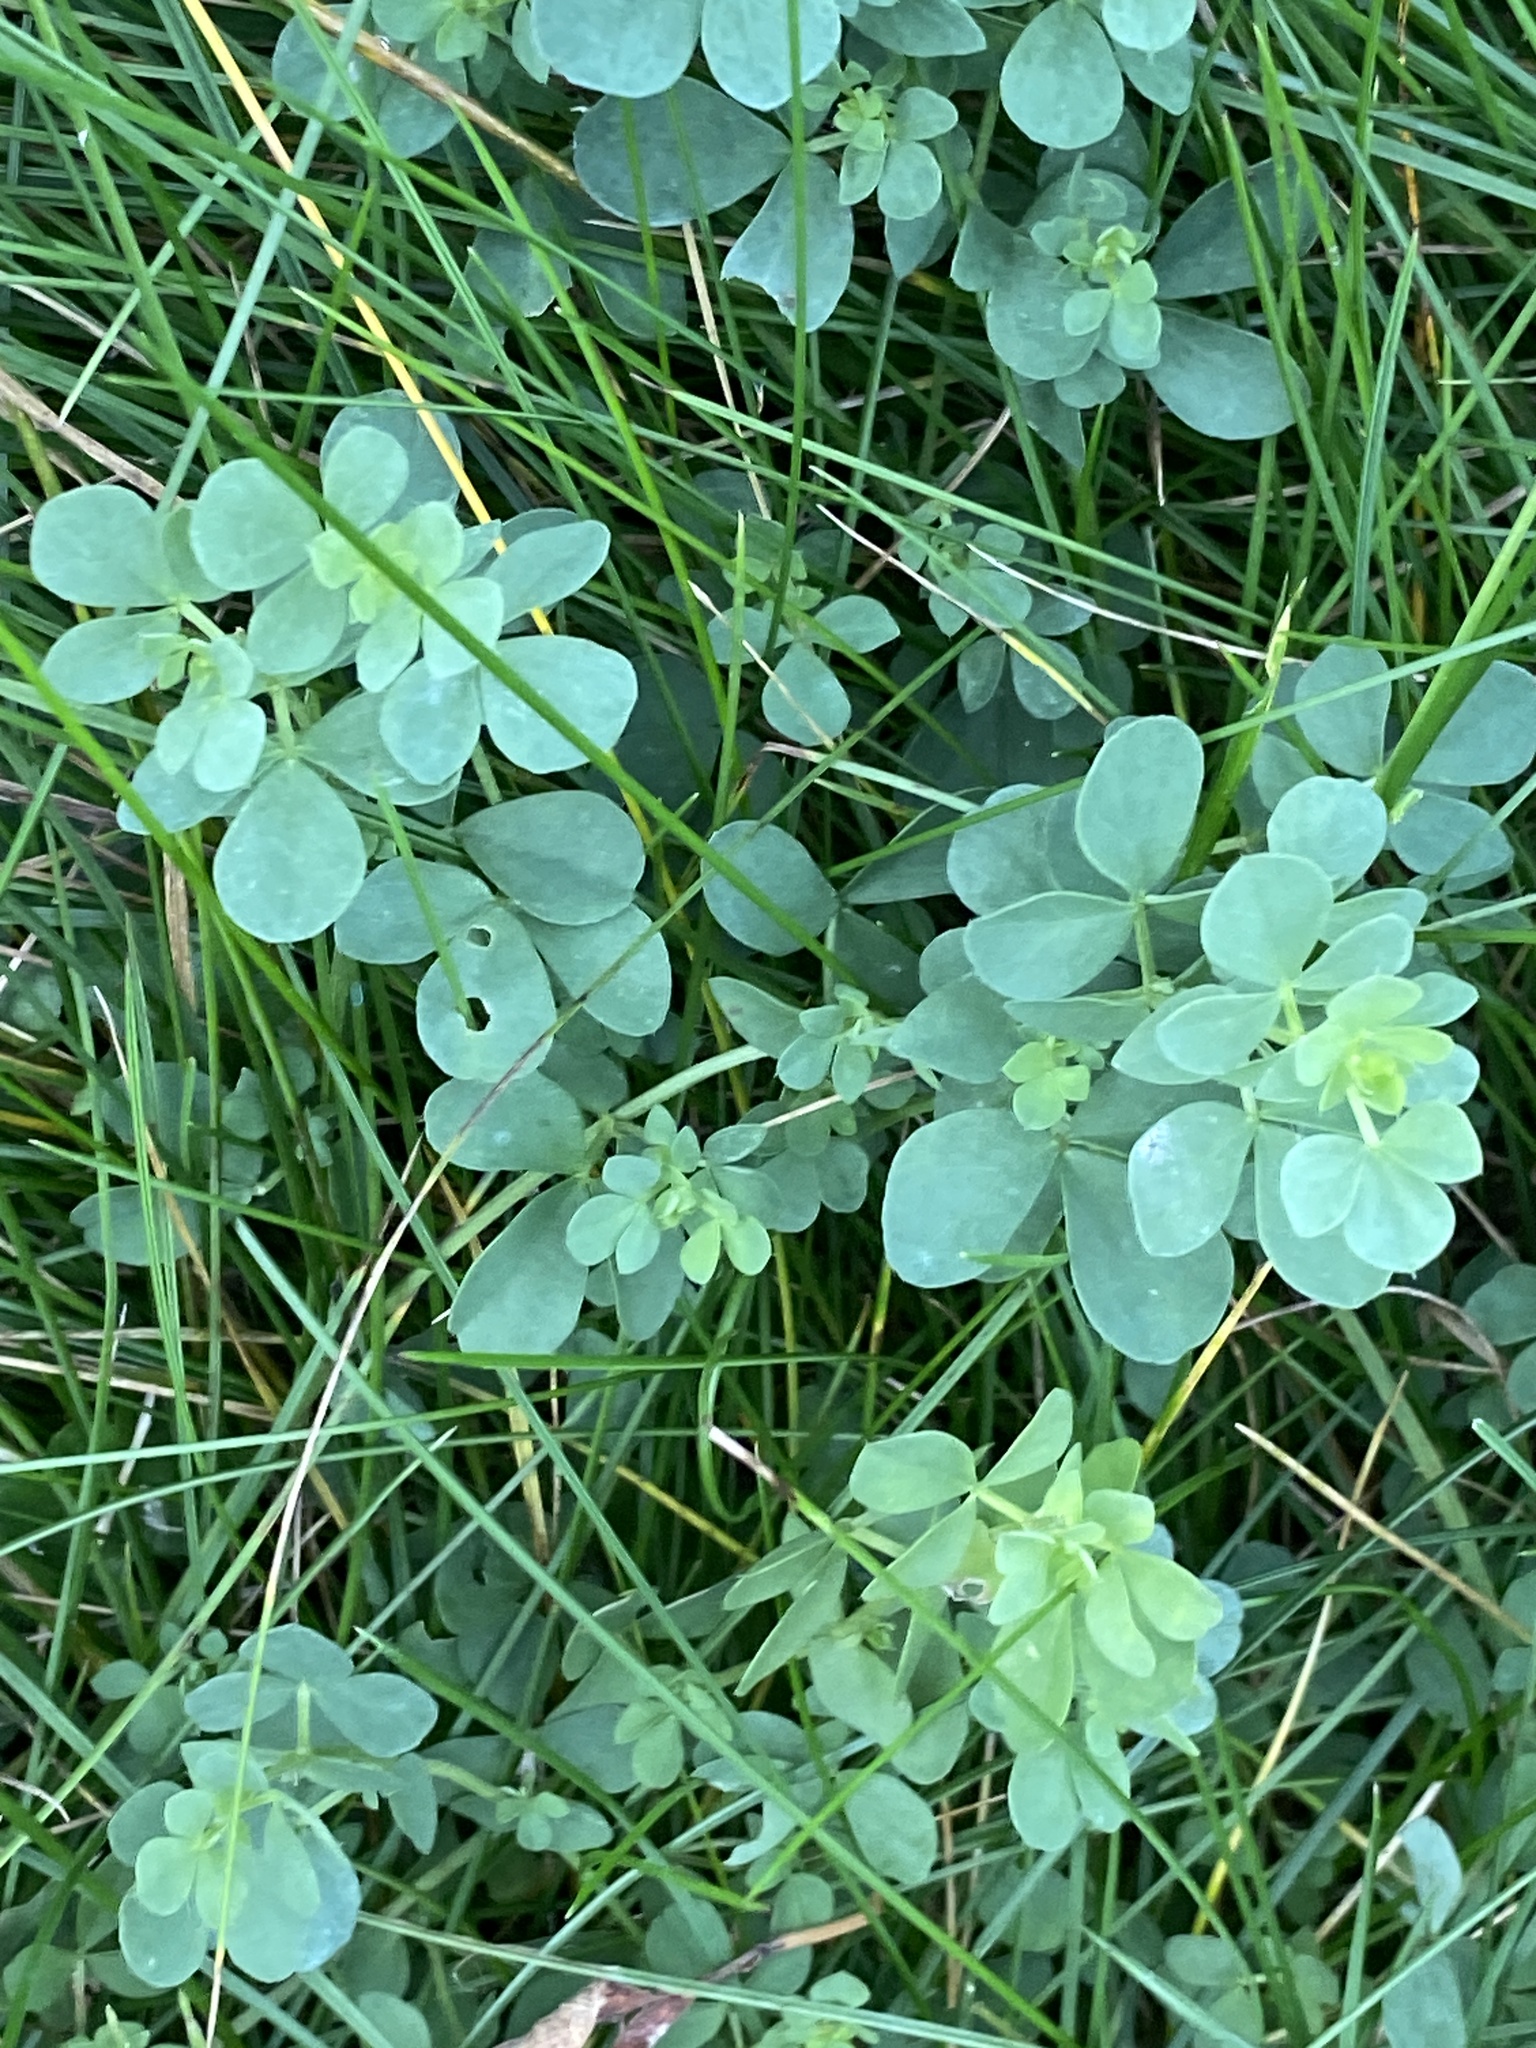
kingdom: Plantae
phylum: Tracheophyta
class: Magnoliopsida
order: Fabales
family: Fabaceae
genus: Lotus
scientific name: Lotus corniculatus
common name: Common bird's-foot-trefoil
